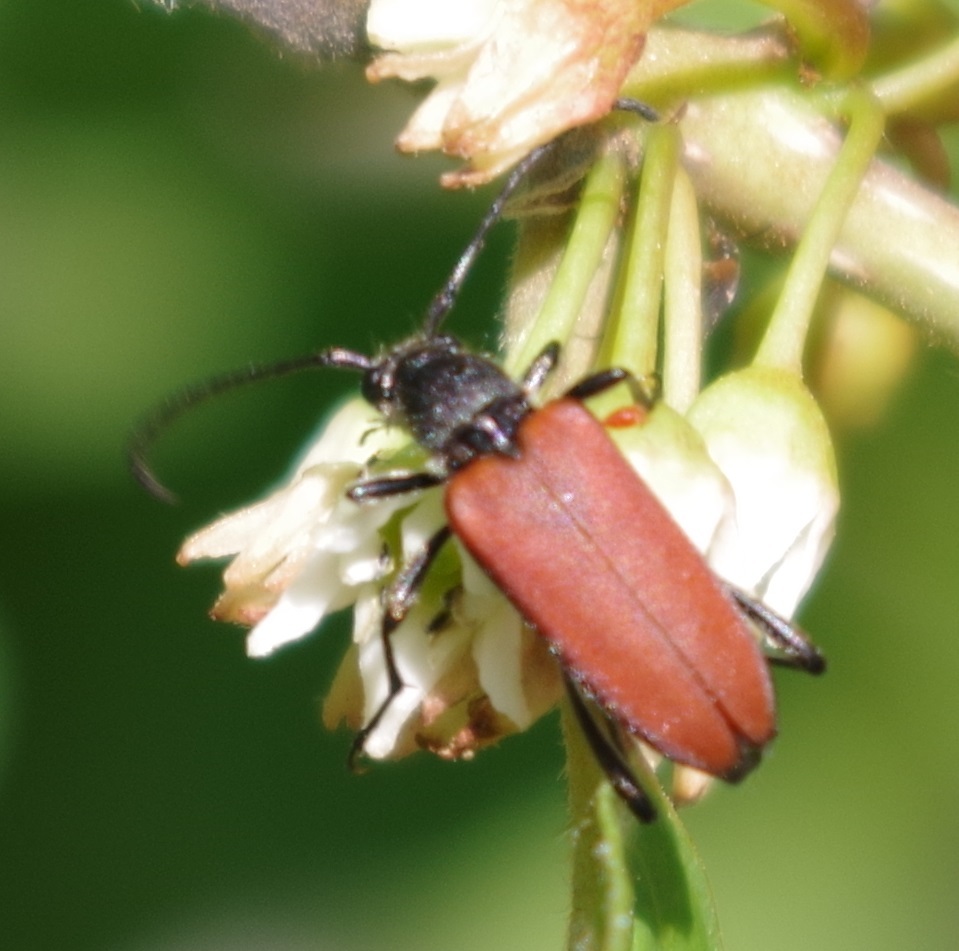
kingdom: Animalia
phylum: Arthropoda
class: Insecta
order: Coleoptera
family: Cerambycidae
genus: Anastrangalia
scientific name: Anastrangalia sanguinolenta
